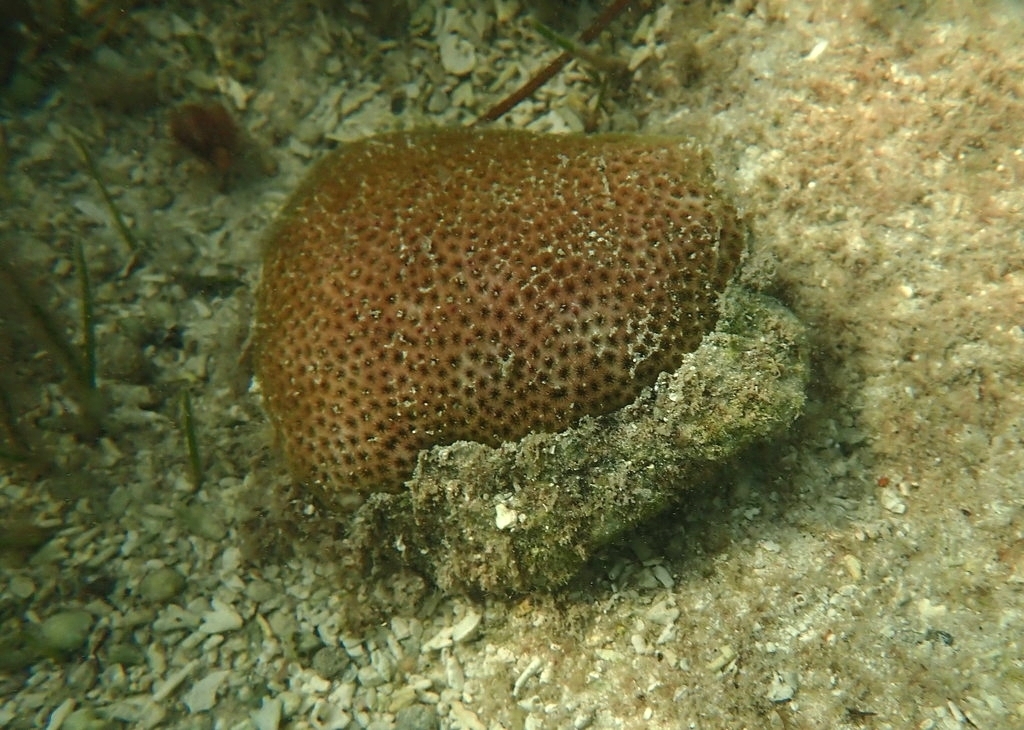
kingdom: Animalia
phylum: Cnidaria
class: Anthozoa
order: Scleractinia
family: Rhizangiidae
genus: Siderastrea
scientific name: Siderastrea radians
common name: Lesser starlet coral
